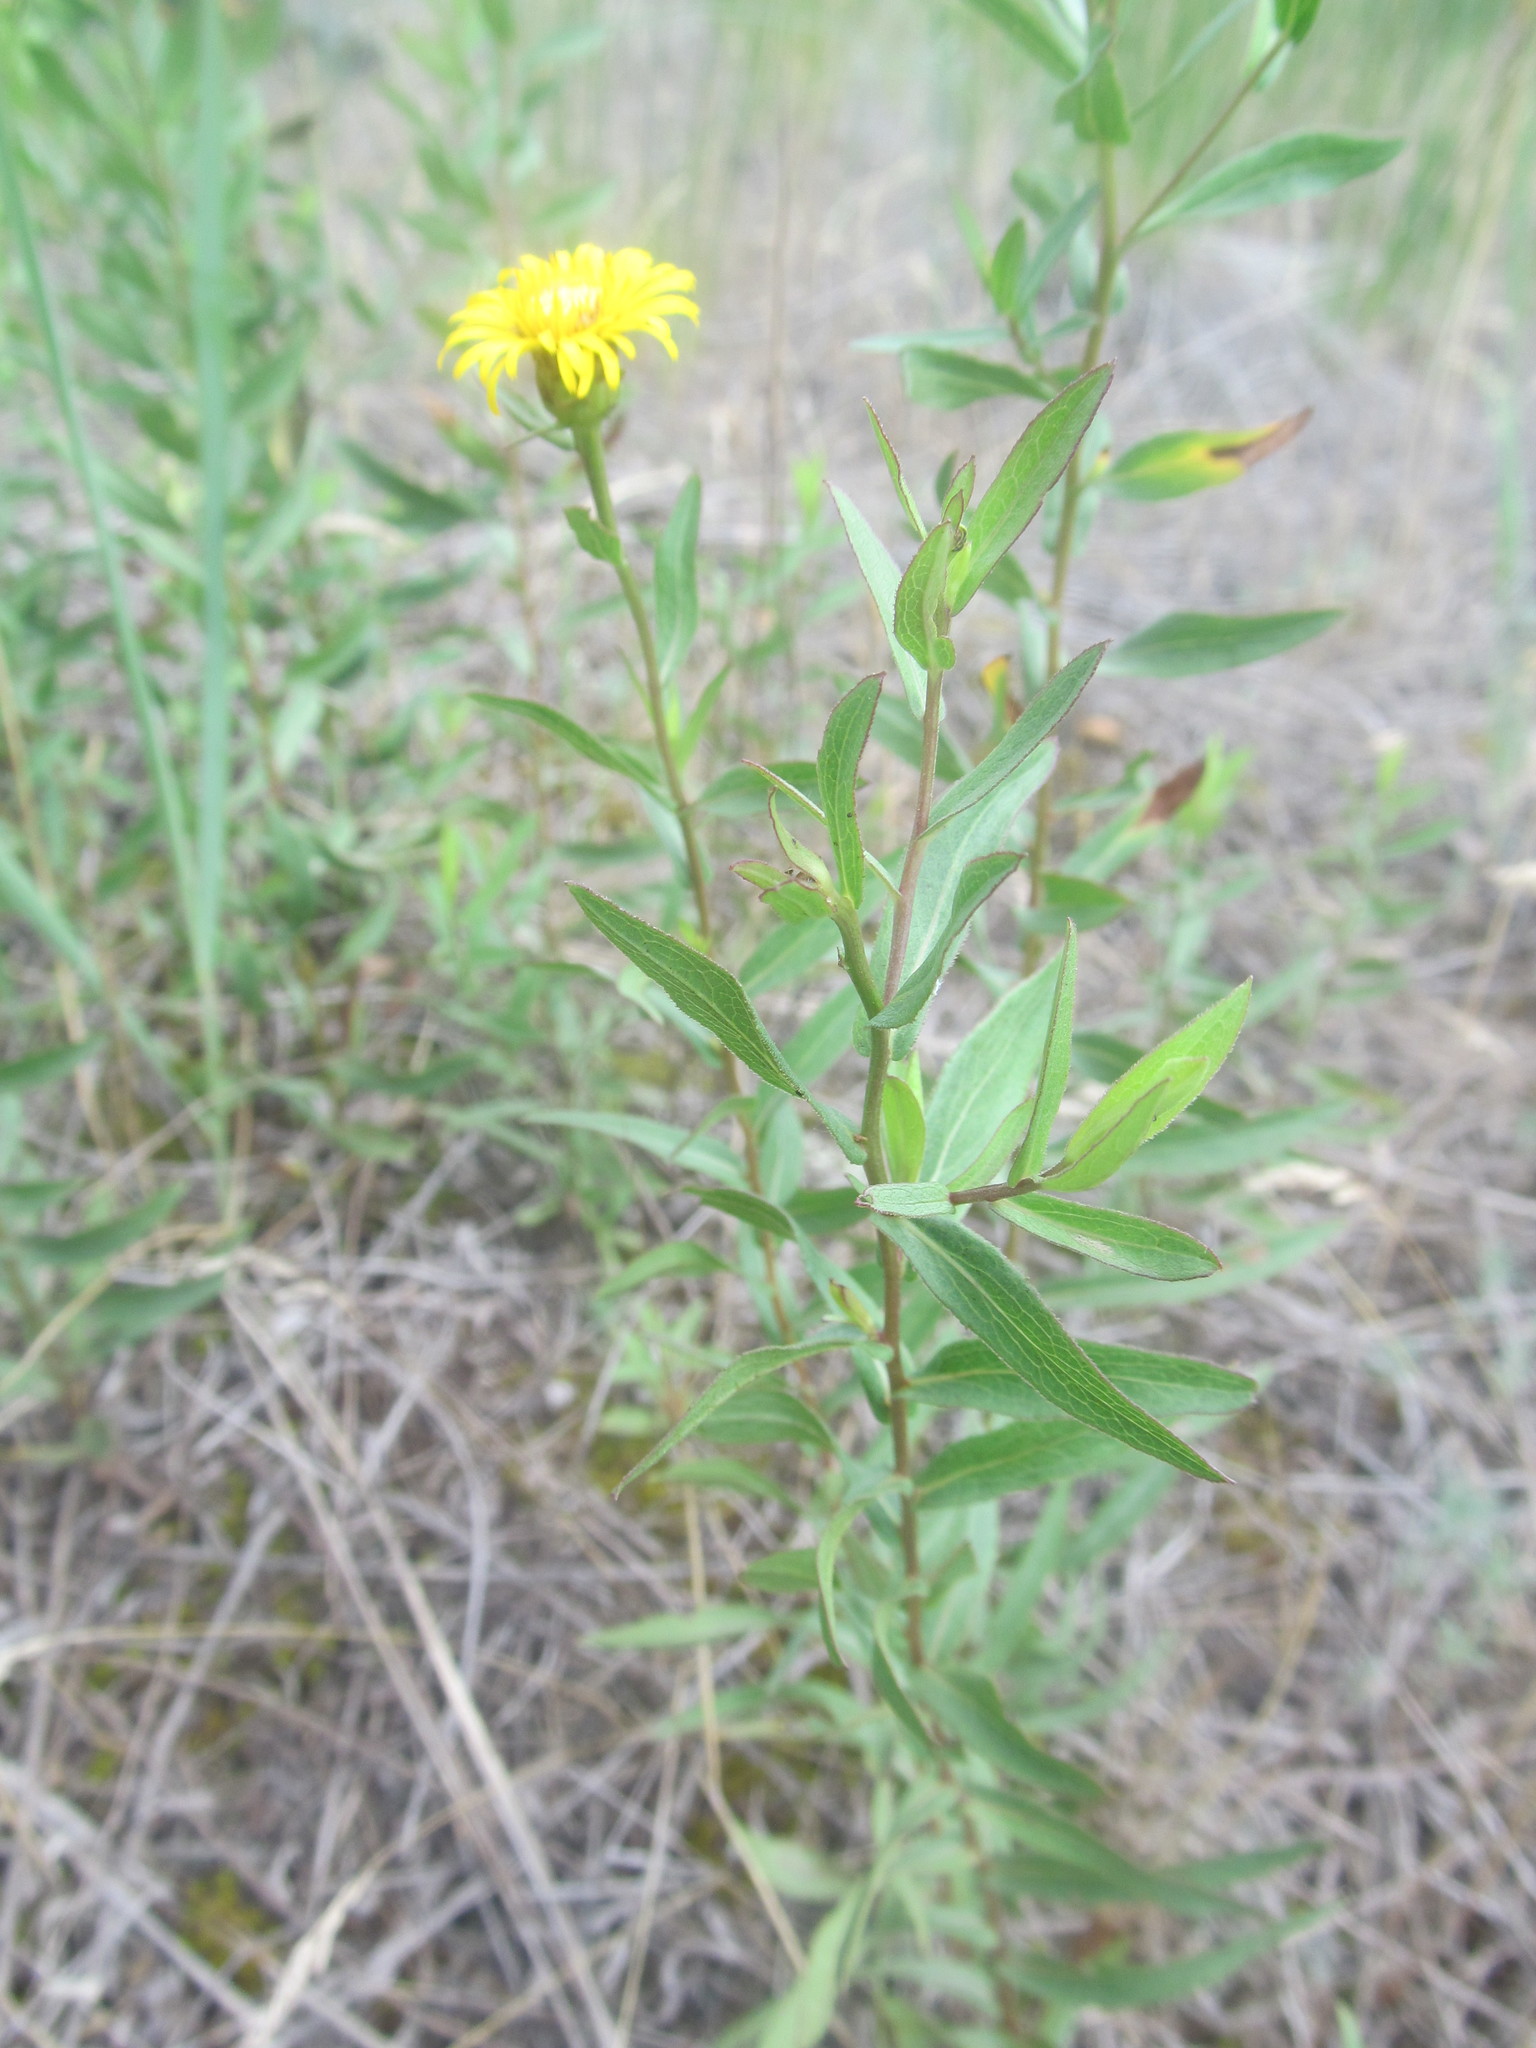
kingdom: Plantae
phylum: Tracheophyta
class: Magnoliopsida
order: Asterales
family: Asteraceae
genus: Pentanema
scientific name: Pentanema sabuletorum
